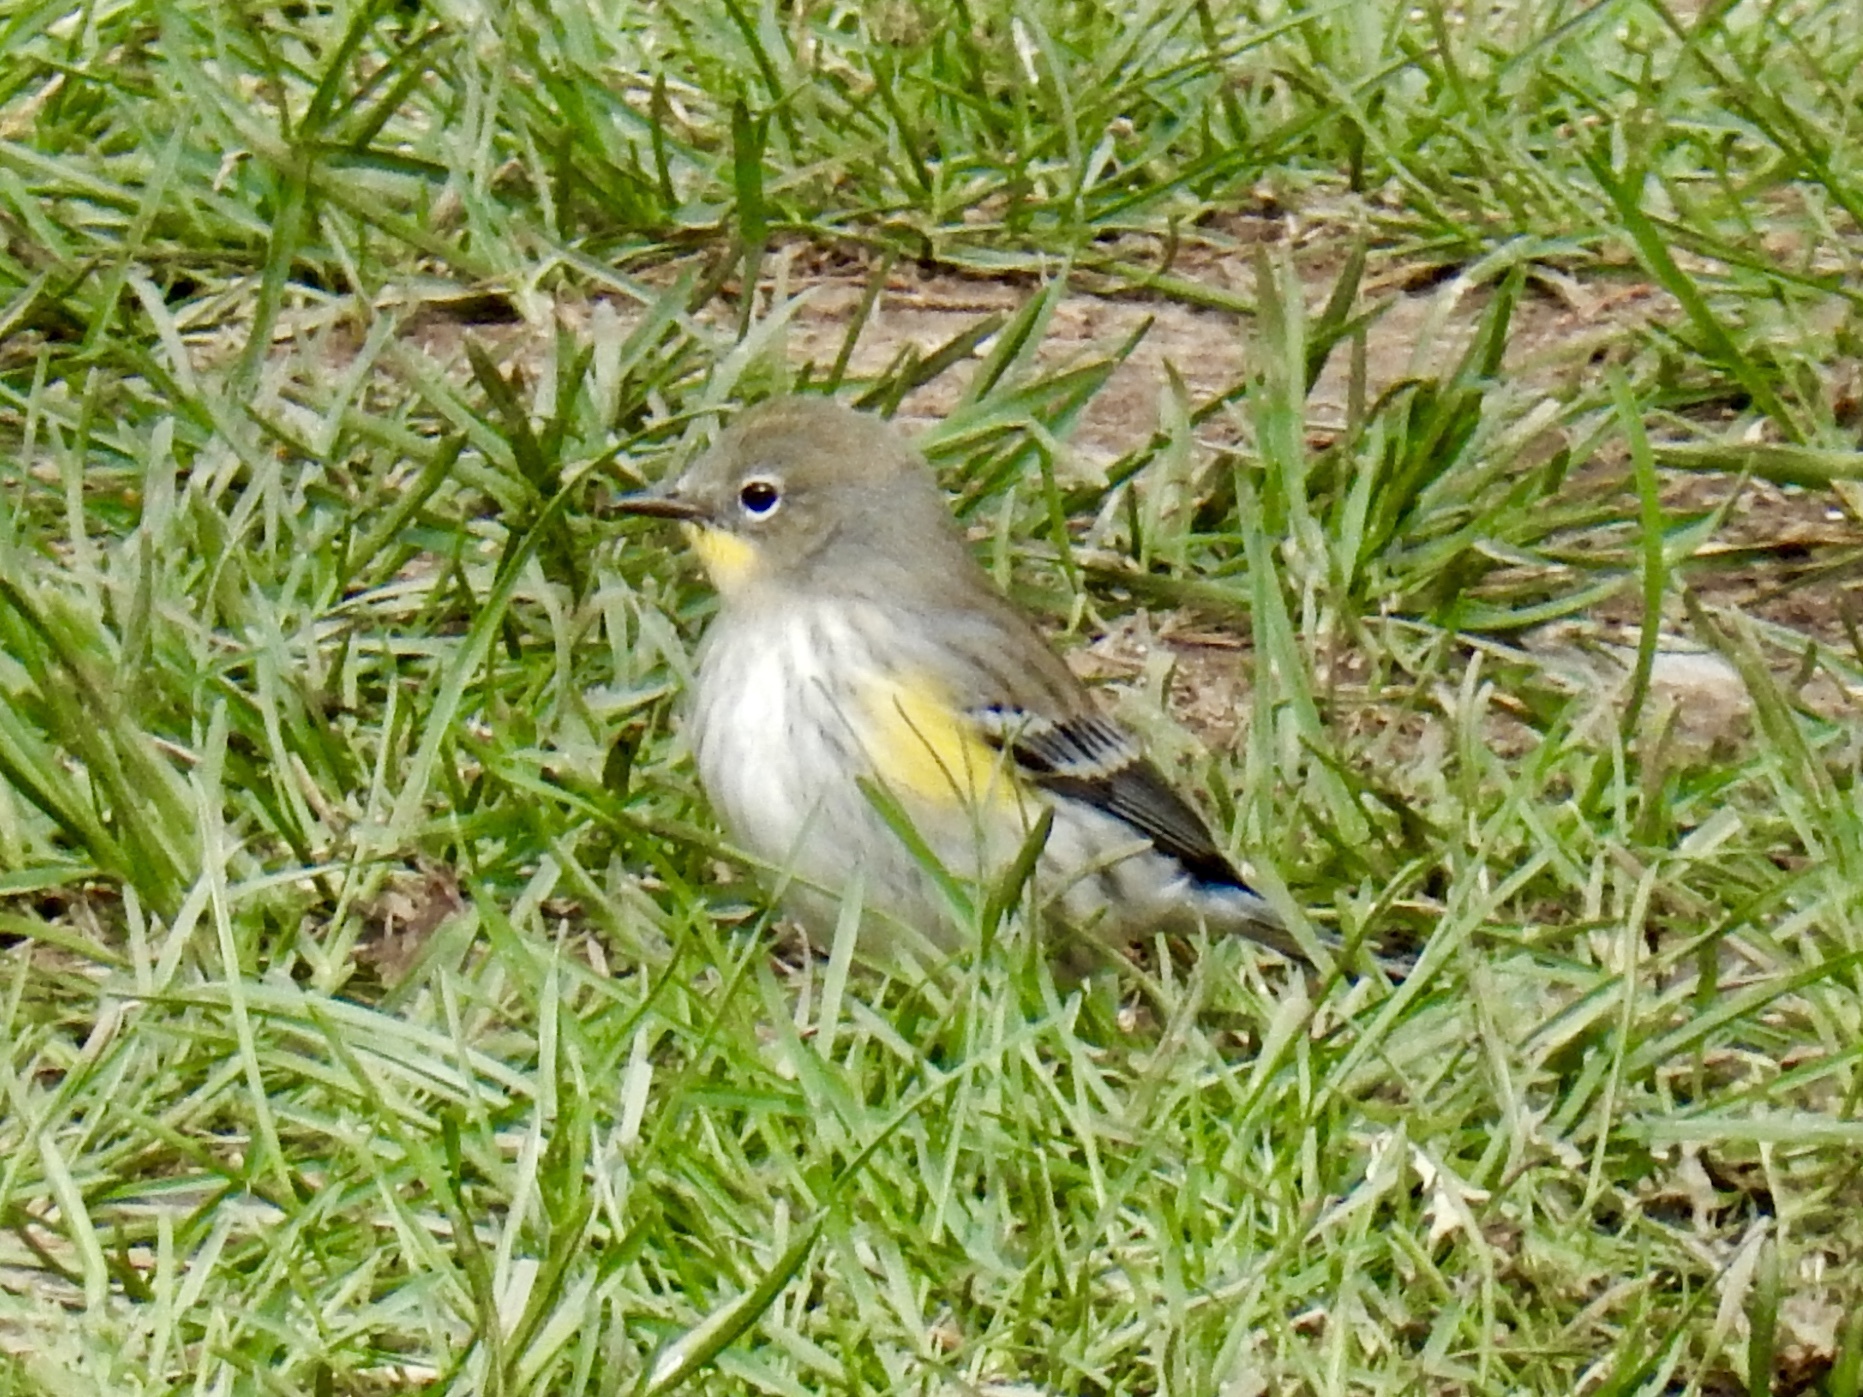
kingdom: Animalia
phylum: Chordata
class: Aves
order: Passeriformes
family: Parulidae
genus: Setophaga
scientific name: Setophaga auduboni
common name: Audubon's warbler
